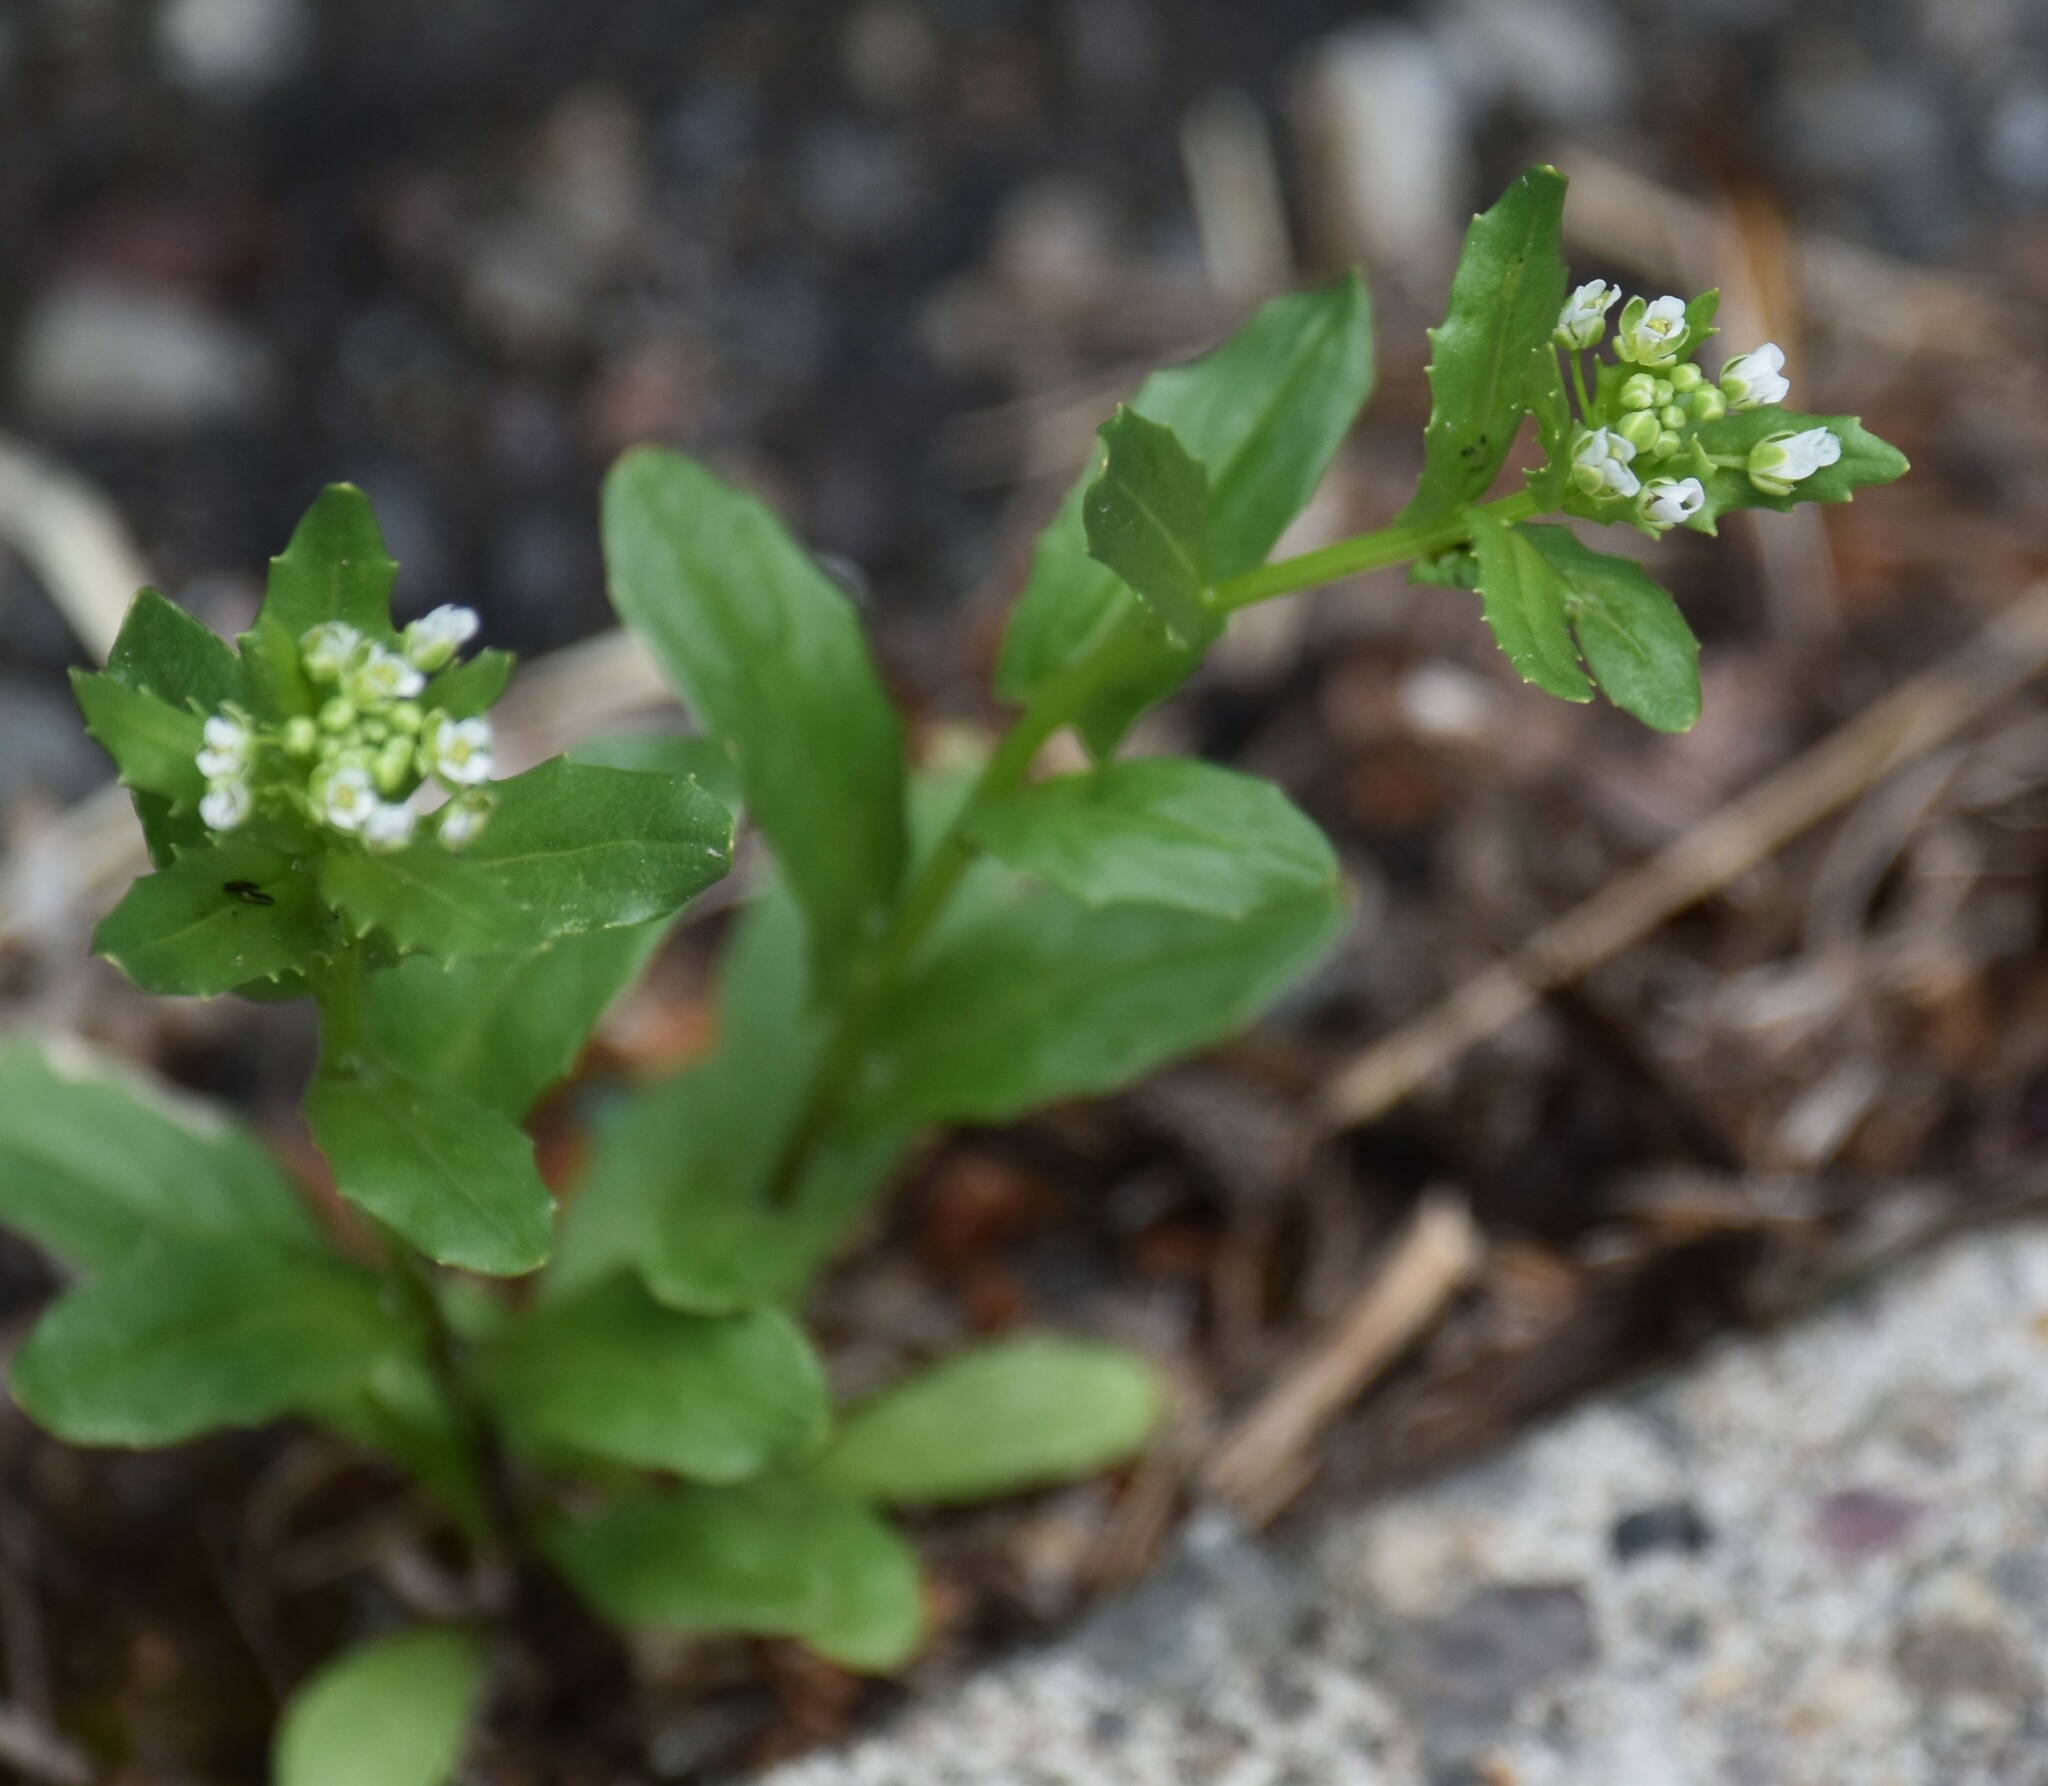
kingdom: Plantae
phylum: Tracheophyta
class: Magnoliopsida
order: Brassicales
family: Brassicaceae
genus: Thlaspi
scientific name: Thlaspi arvense
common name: Field pennycress
